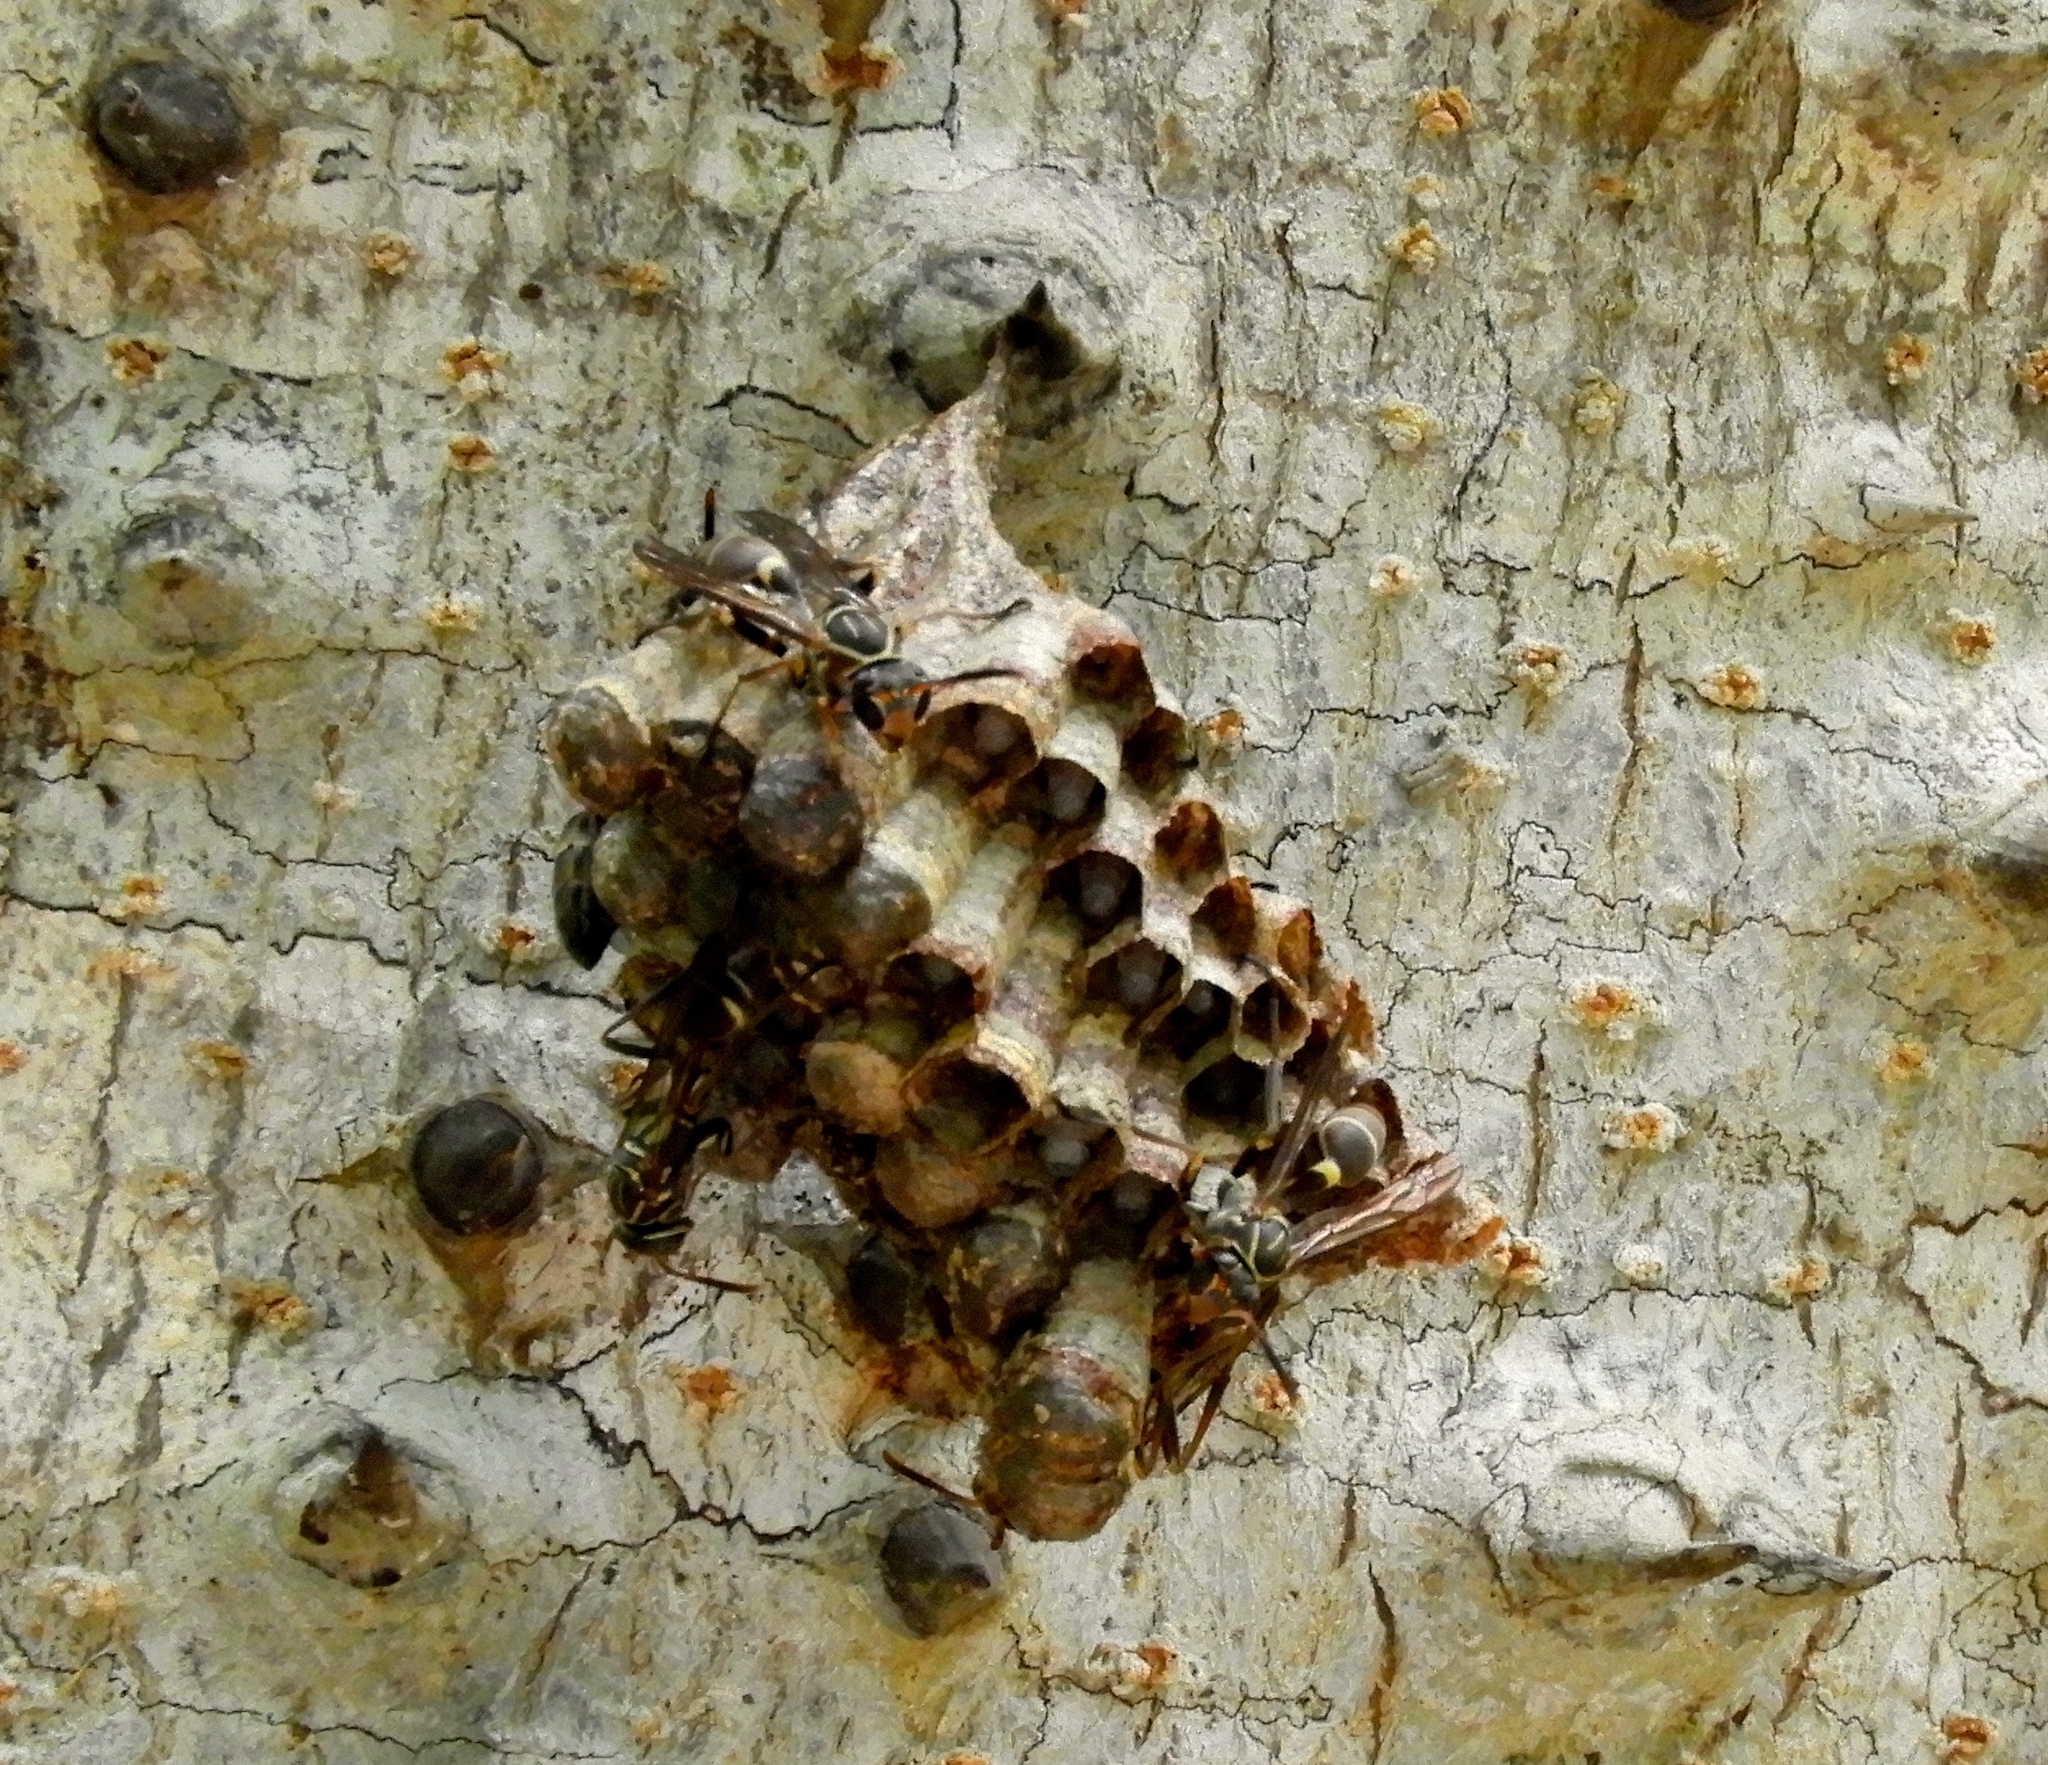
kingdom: Animalia
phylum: Arthropoda
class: Insecta
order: Hymenoptera
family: Vespidae
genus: Mischocyttarus
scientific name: Mischocyttarus
